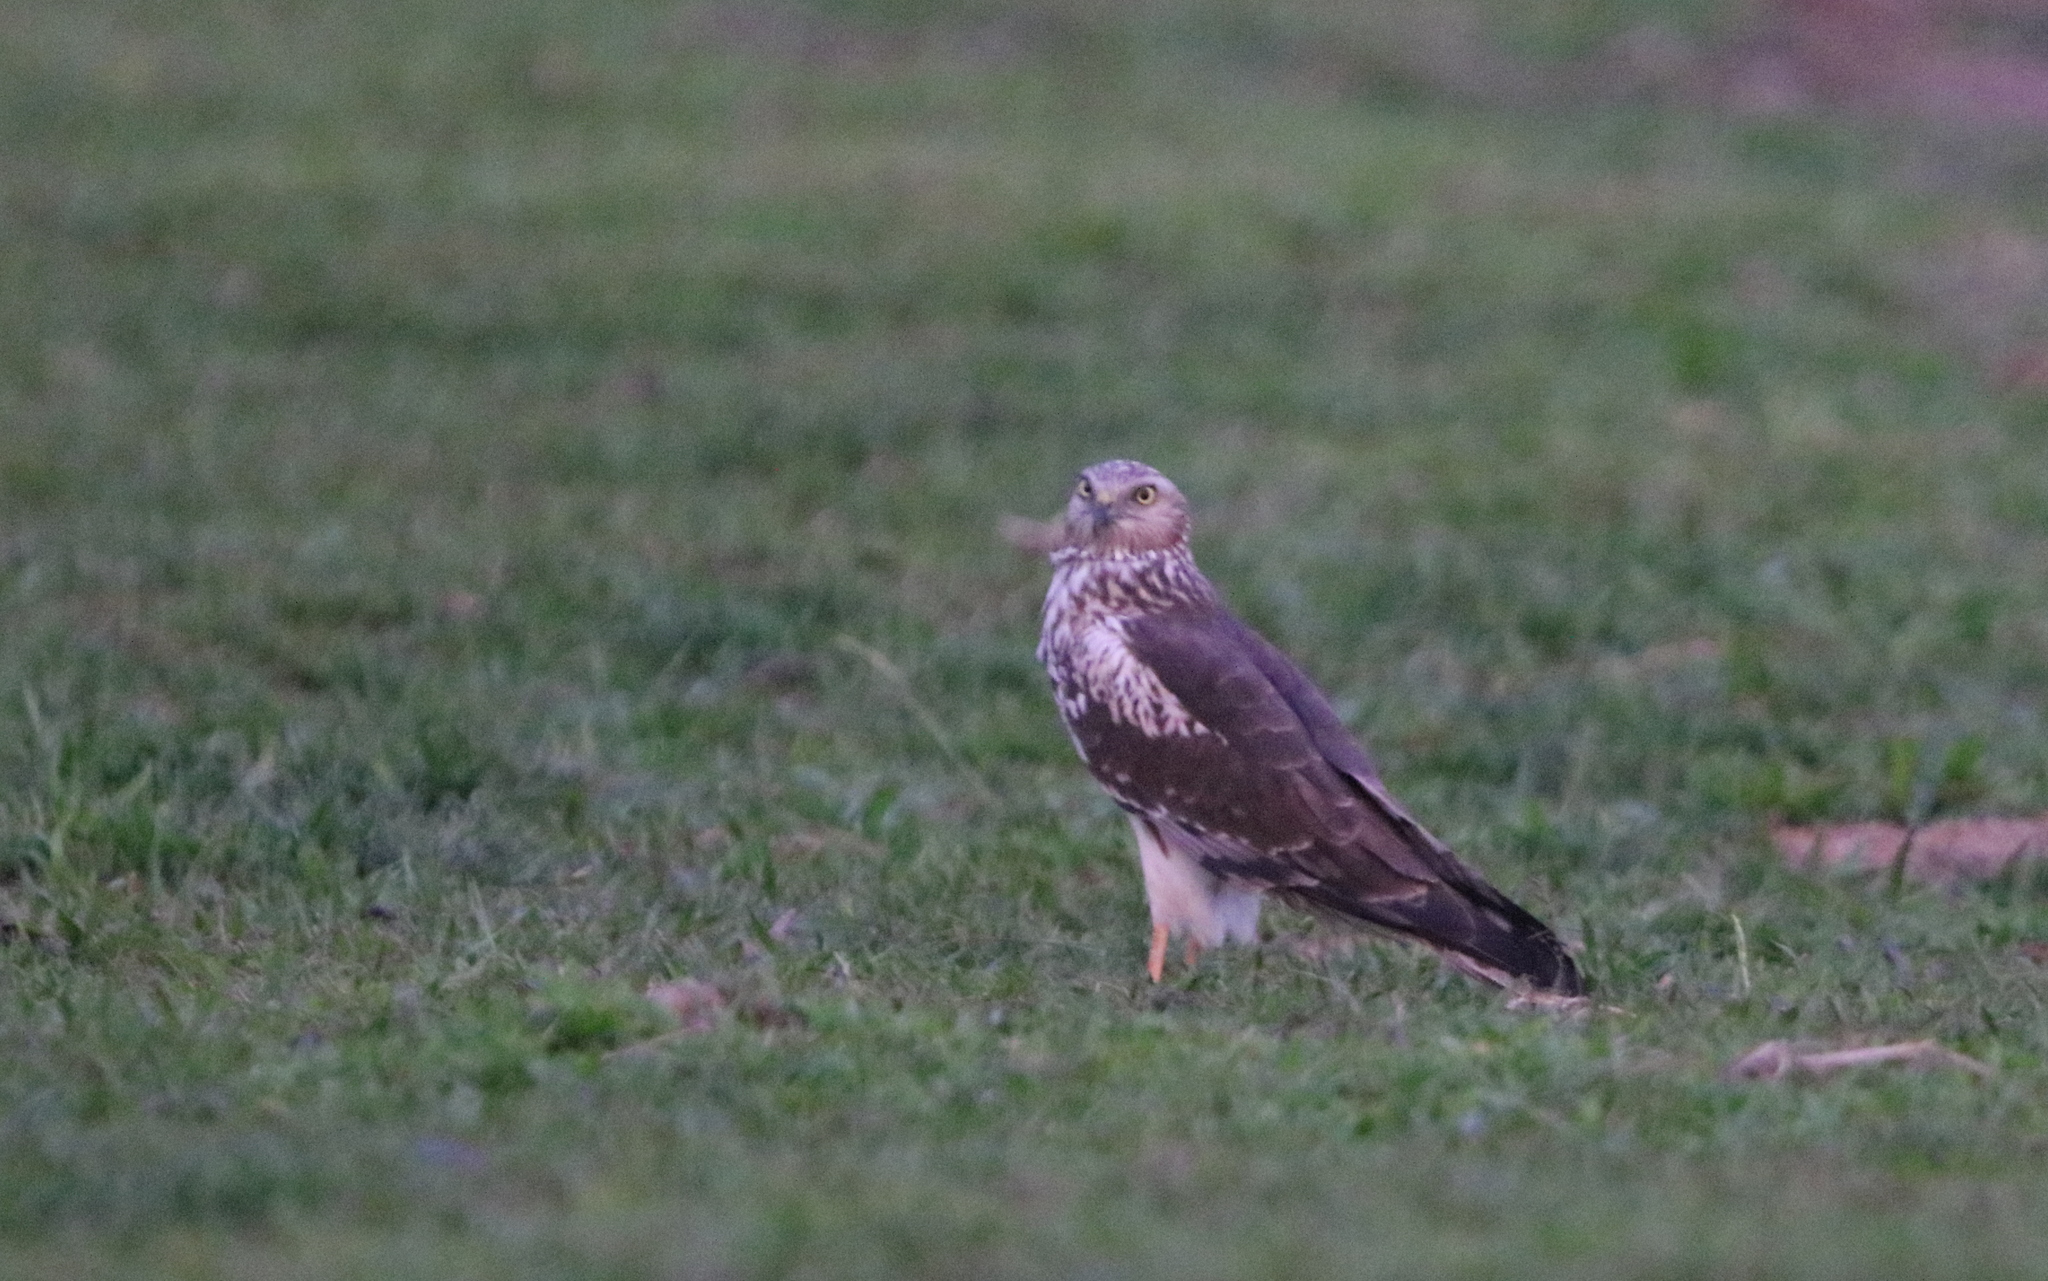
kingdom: Animalia
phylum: Chordata
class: Aves
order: Accipitriformes
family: Accipitridae
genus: Circus
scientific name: Circus melanoleucos
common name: Pied harrier
